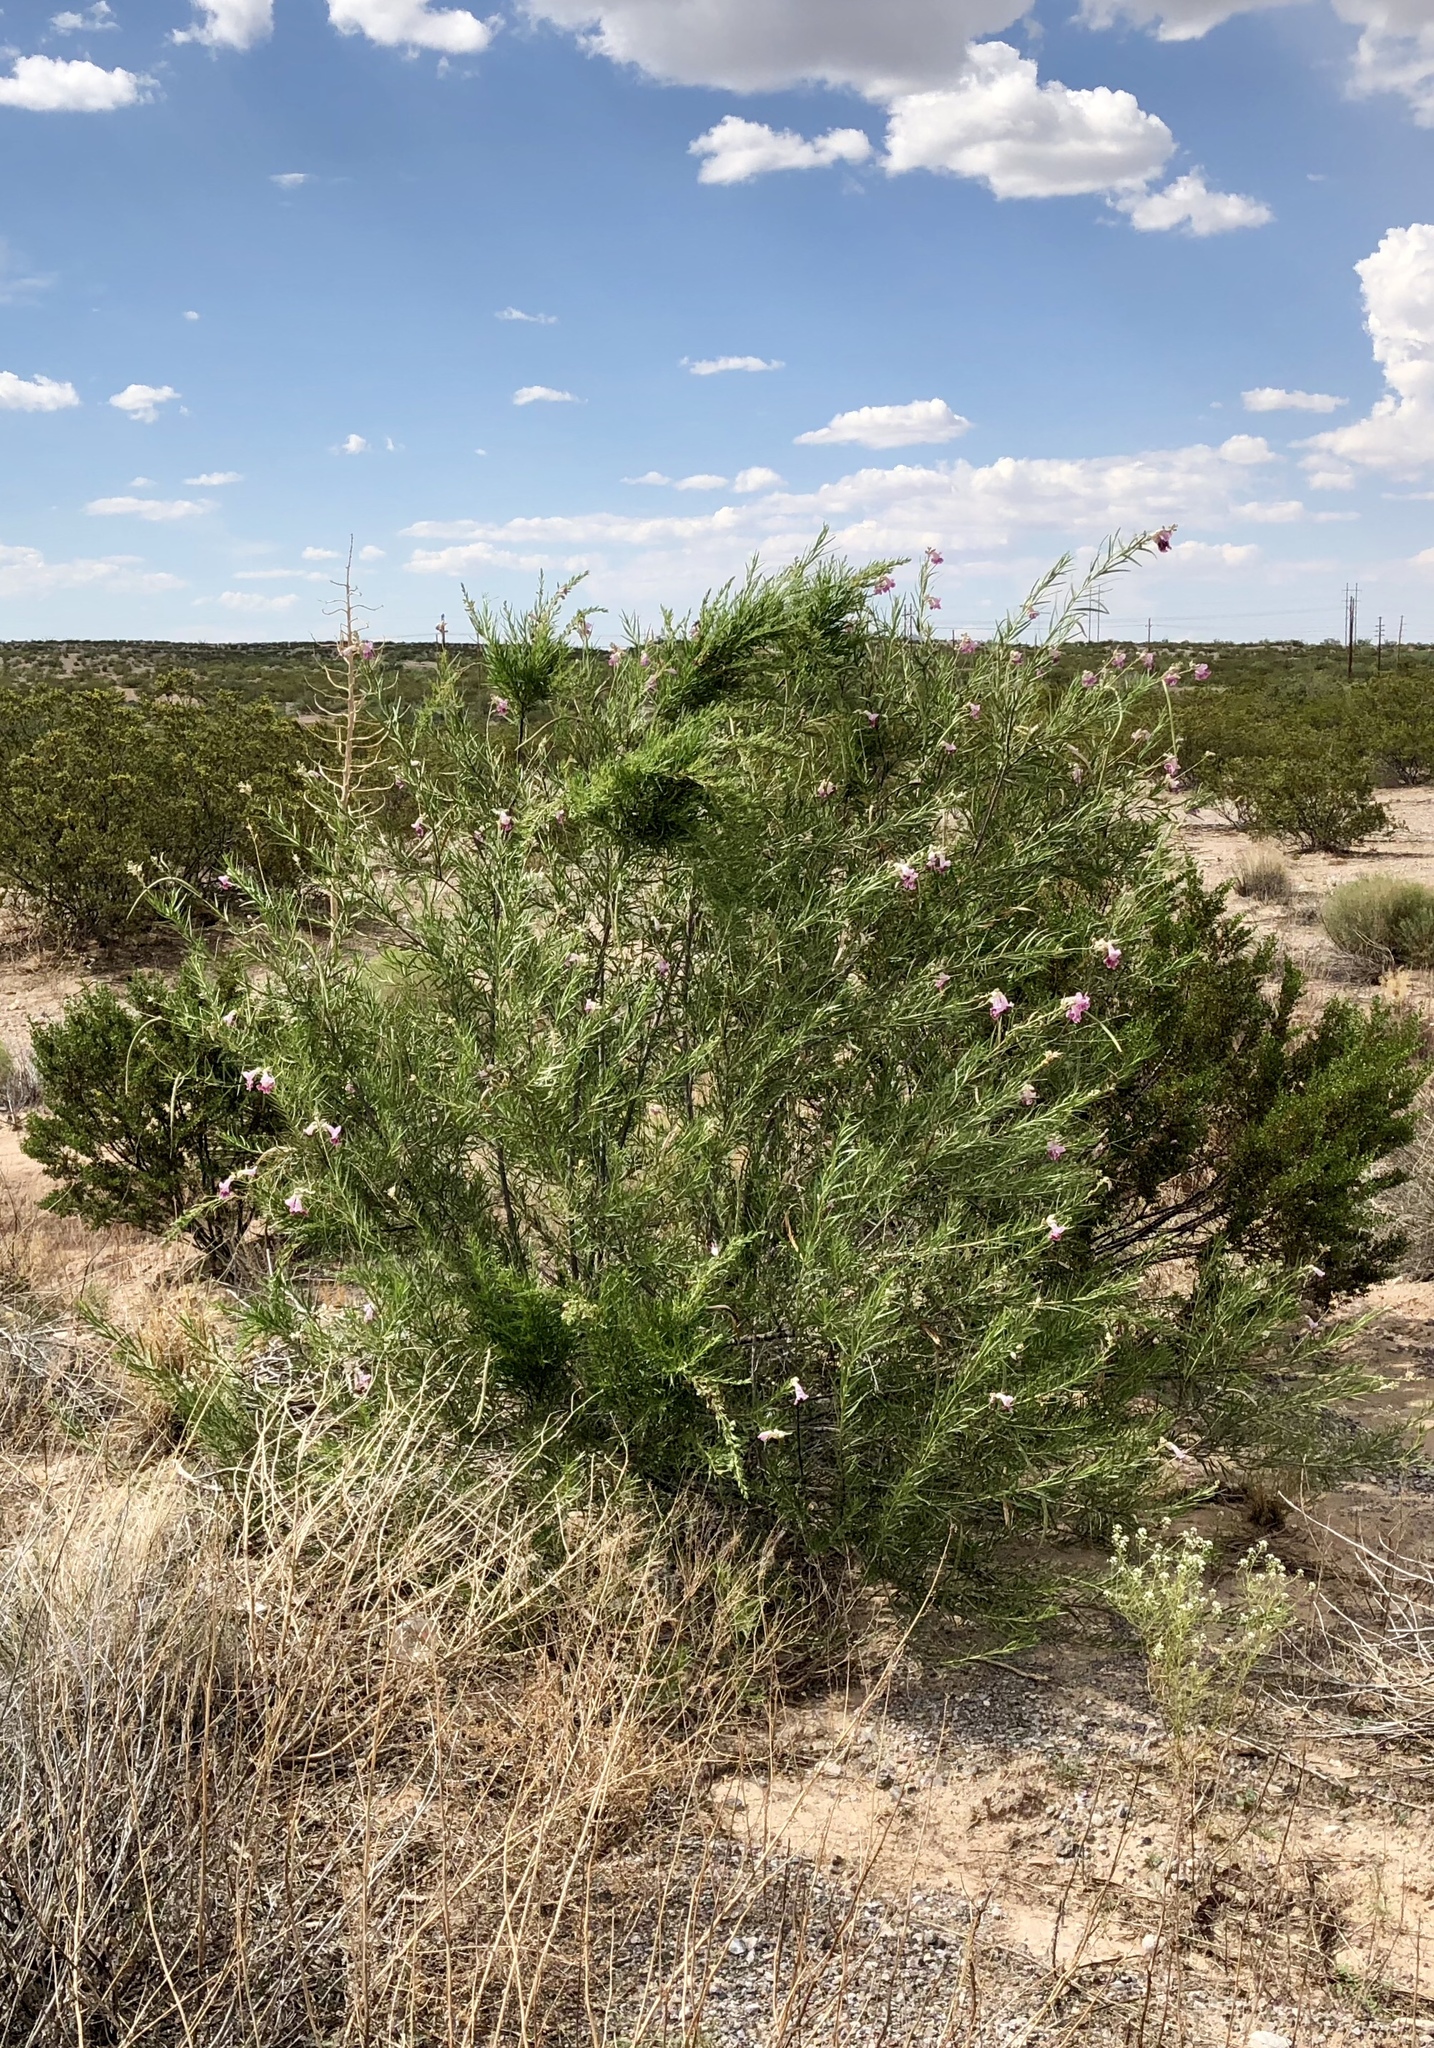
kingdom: Plantae
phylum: Tracheophyta
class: Magnoliopsida
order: Lamiales
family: Bignoniaceae
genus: Chilopsis
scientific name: Chilopsis linearis
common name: Desert-willow
